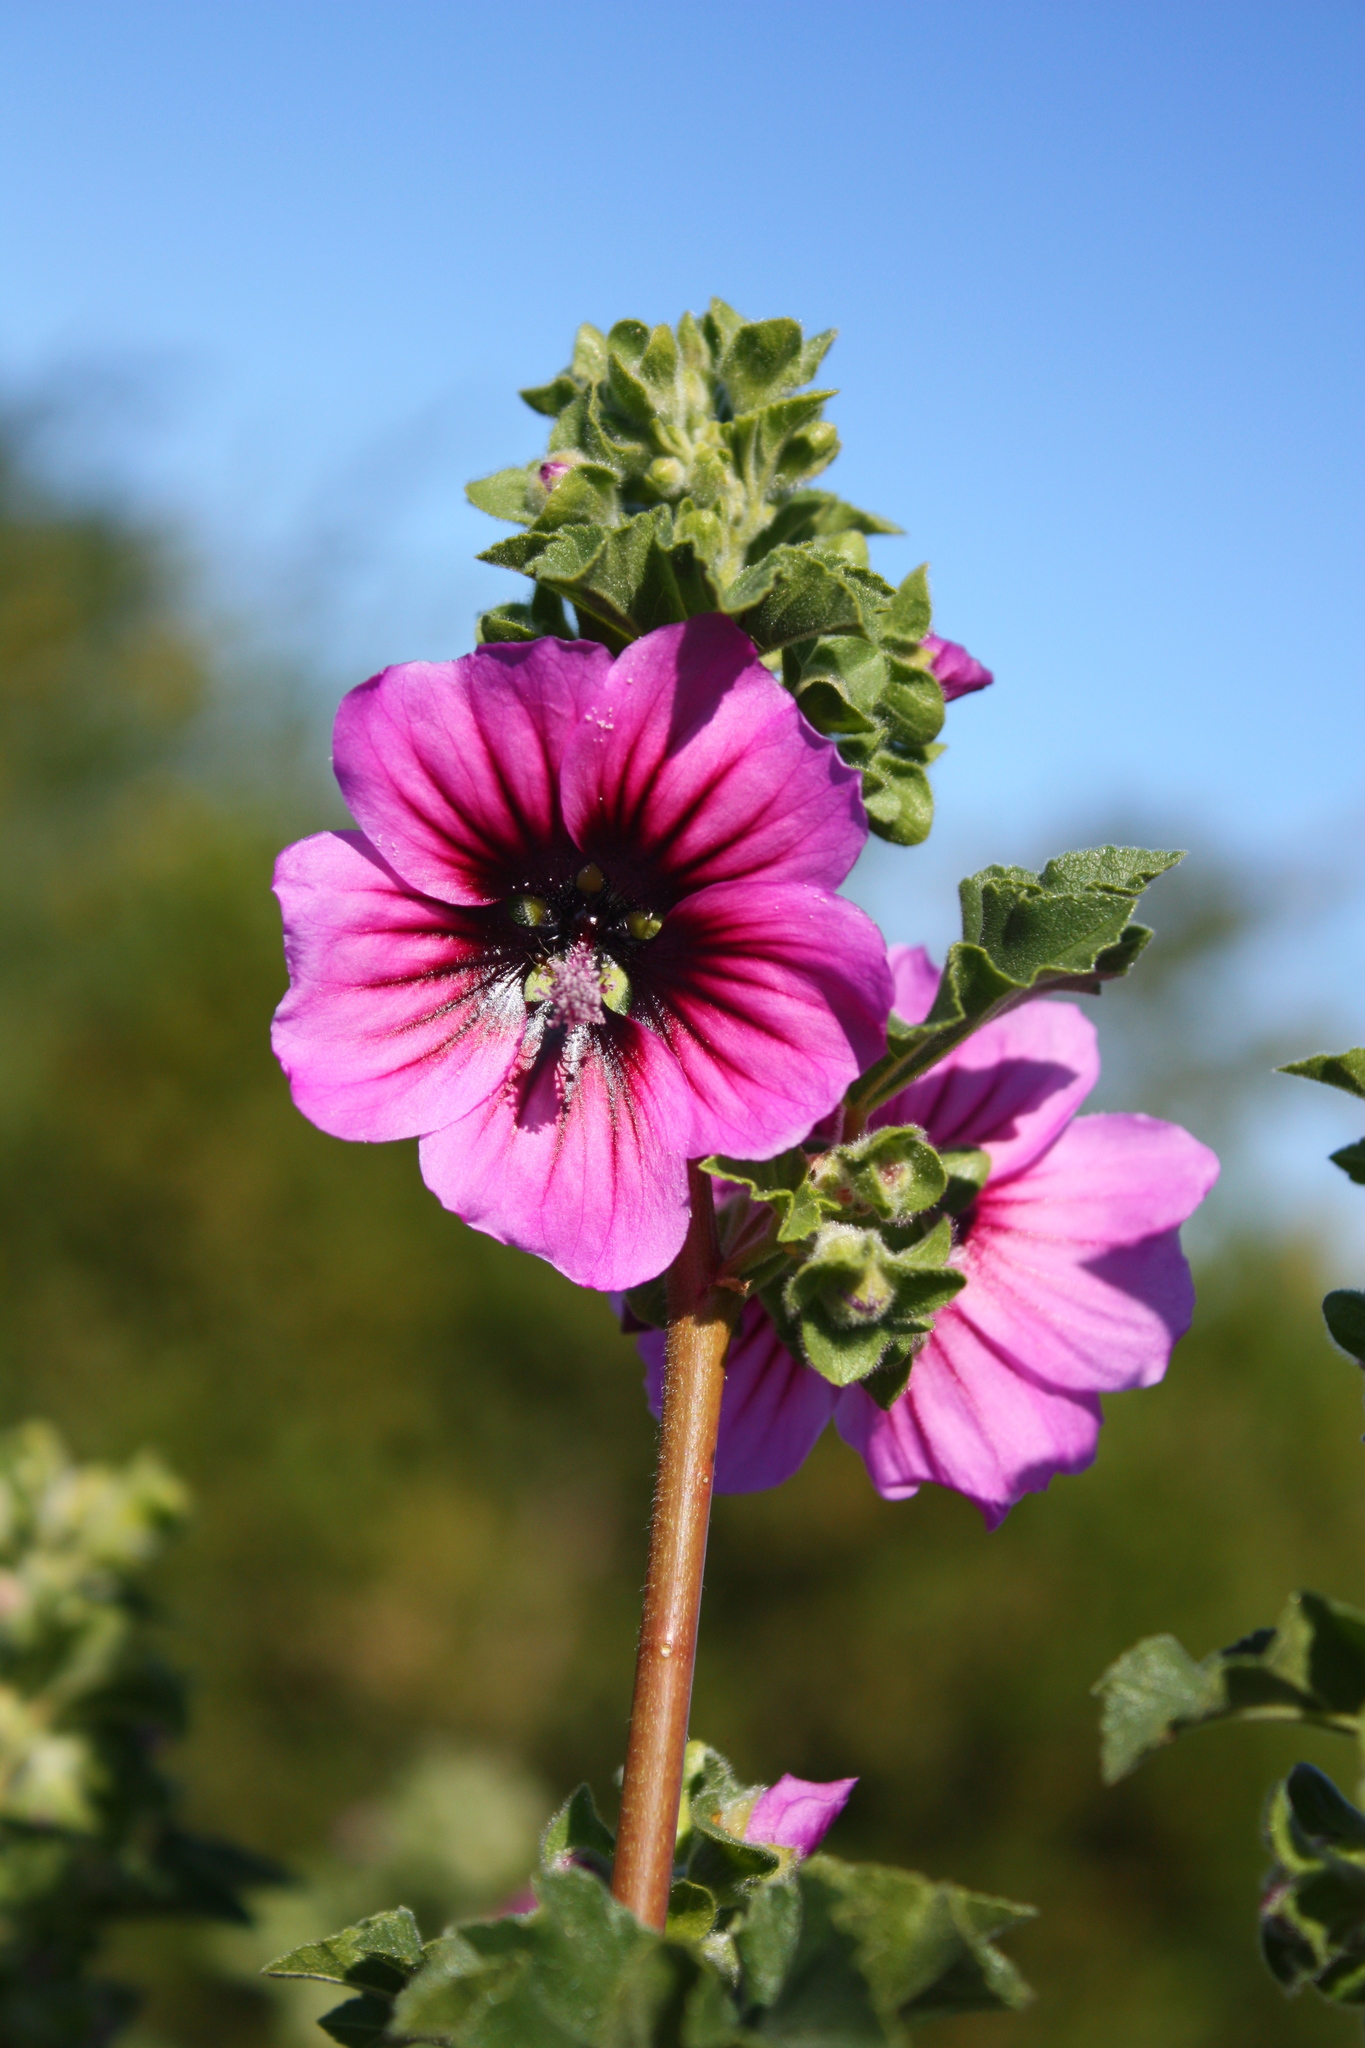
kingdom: Plantae
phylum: Tracheophyta
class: Magnoliopsida
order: Malvales
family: Malvaceae
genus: Malva
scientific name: Malva arborea
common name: Tree mallow
